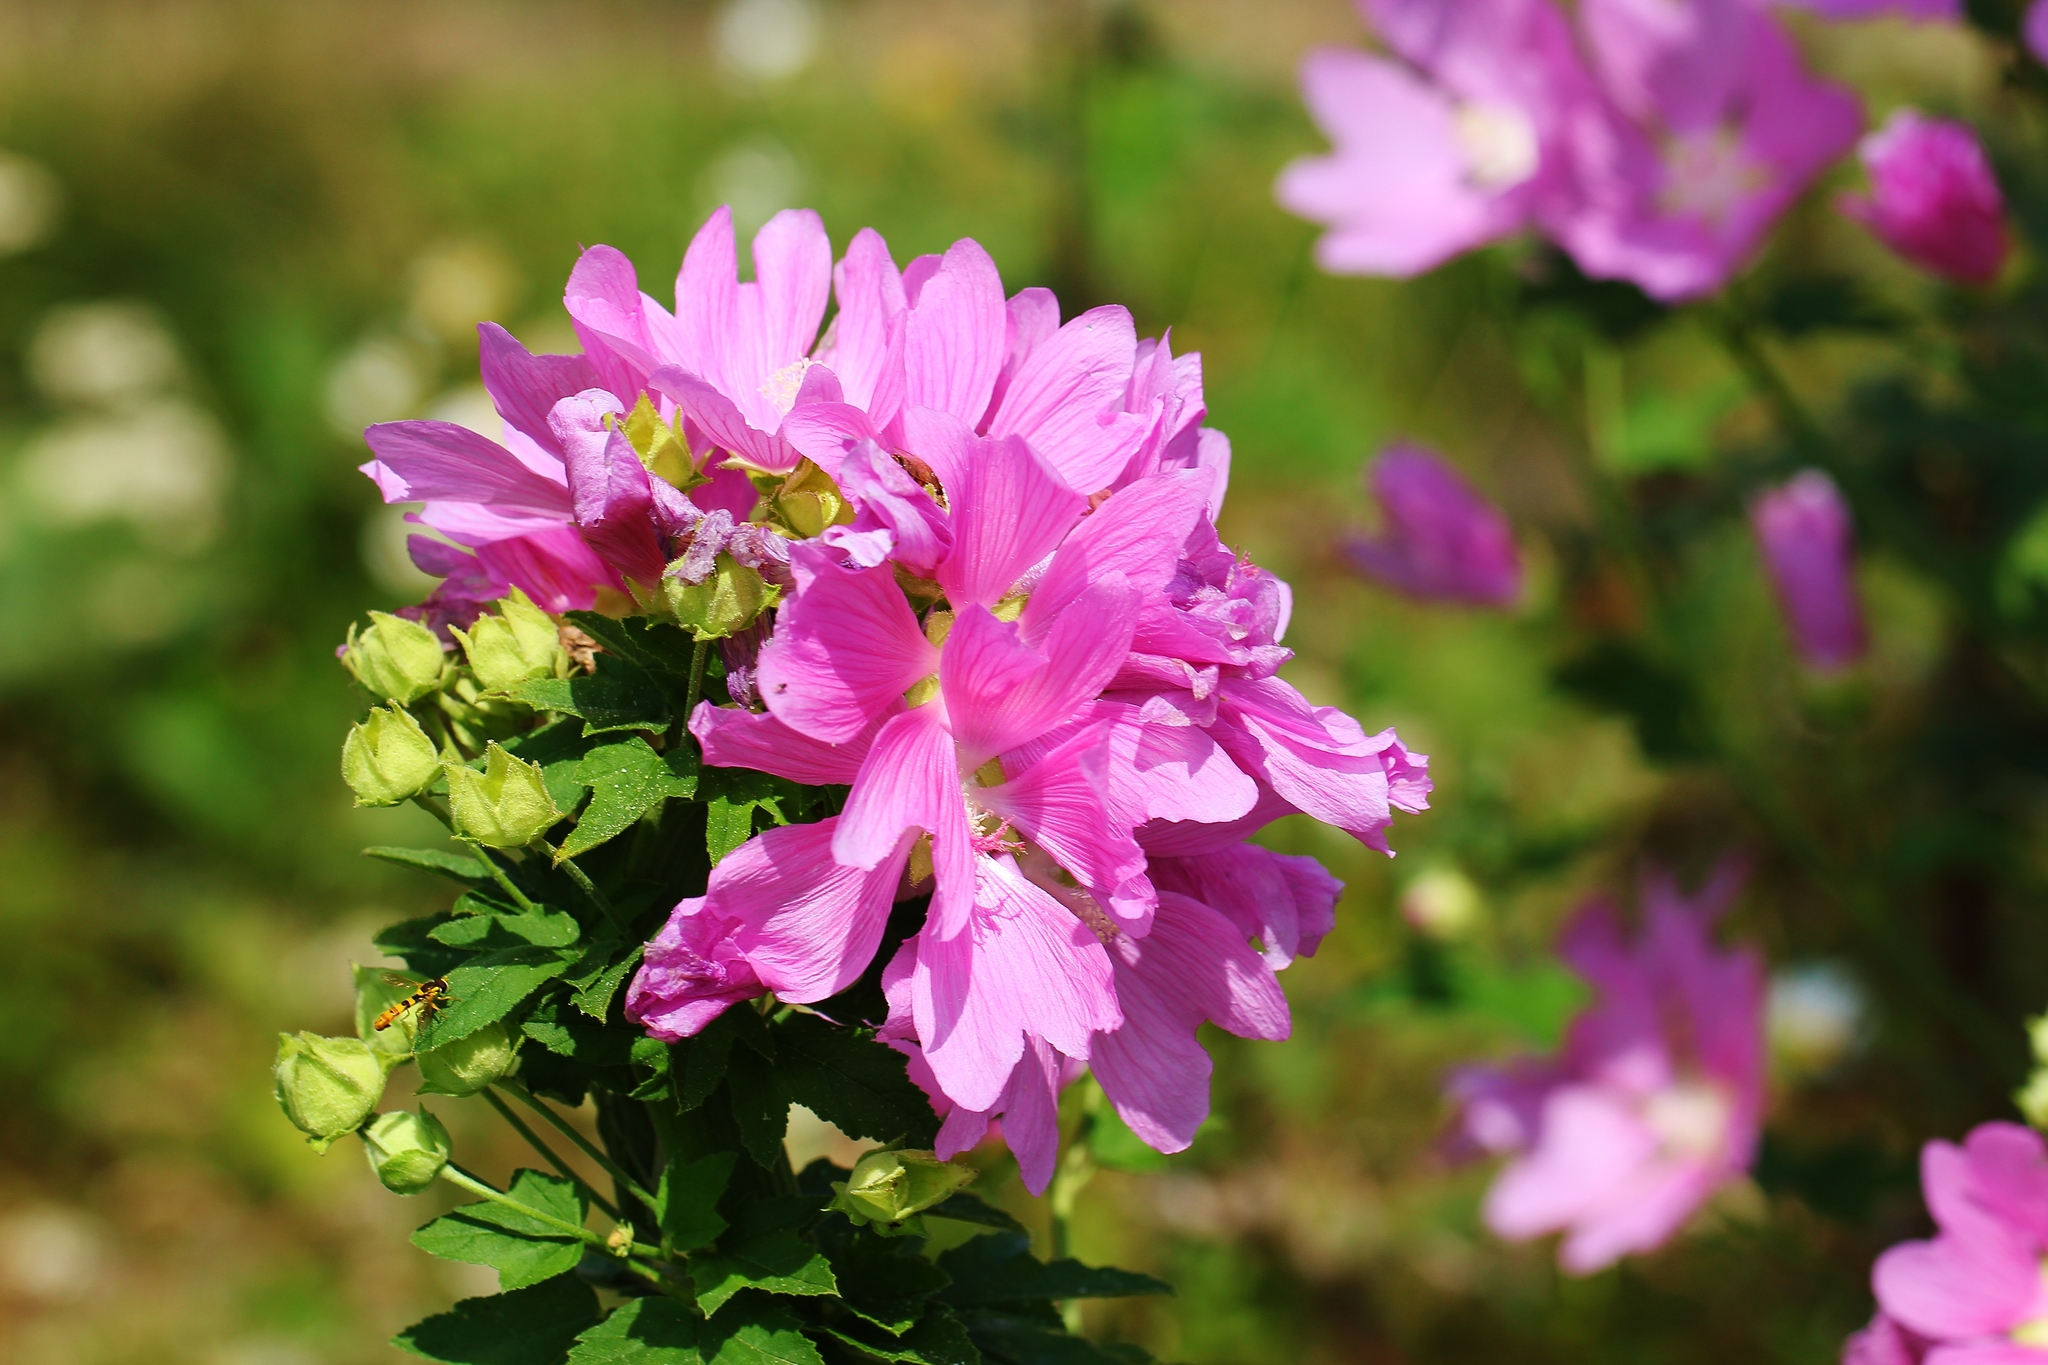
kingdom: Plantae
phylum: Tracheophyta
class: Magnoliopsida
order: Malvales
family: Malvaceae
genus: Malva
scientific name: Malva thuringiaca
